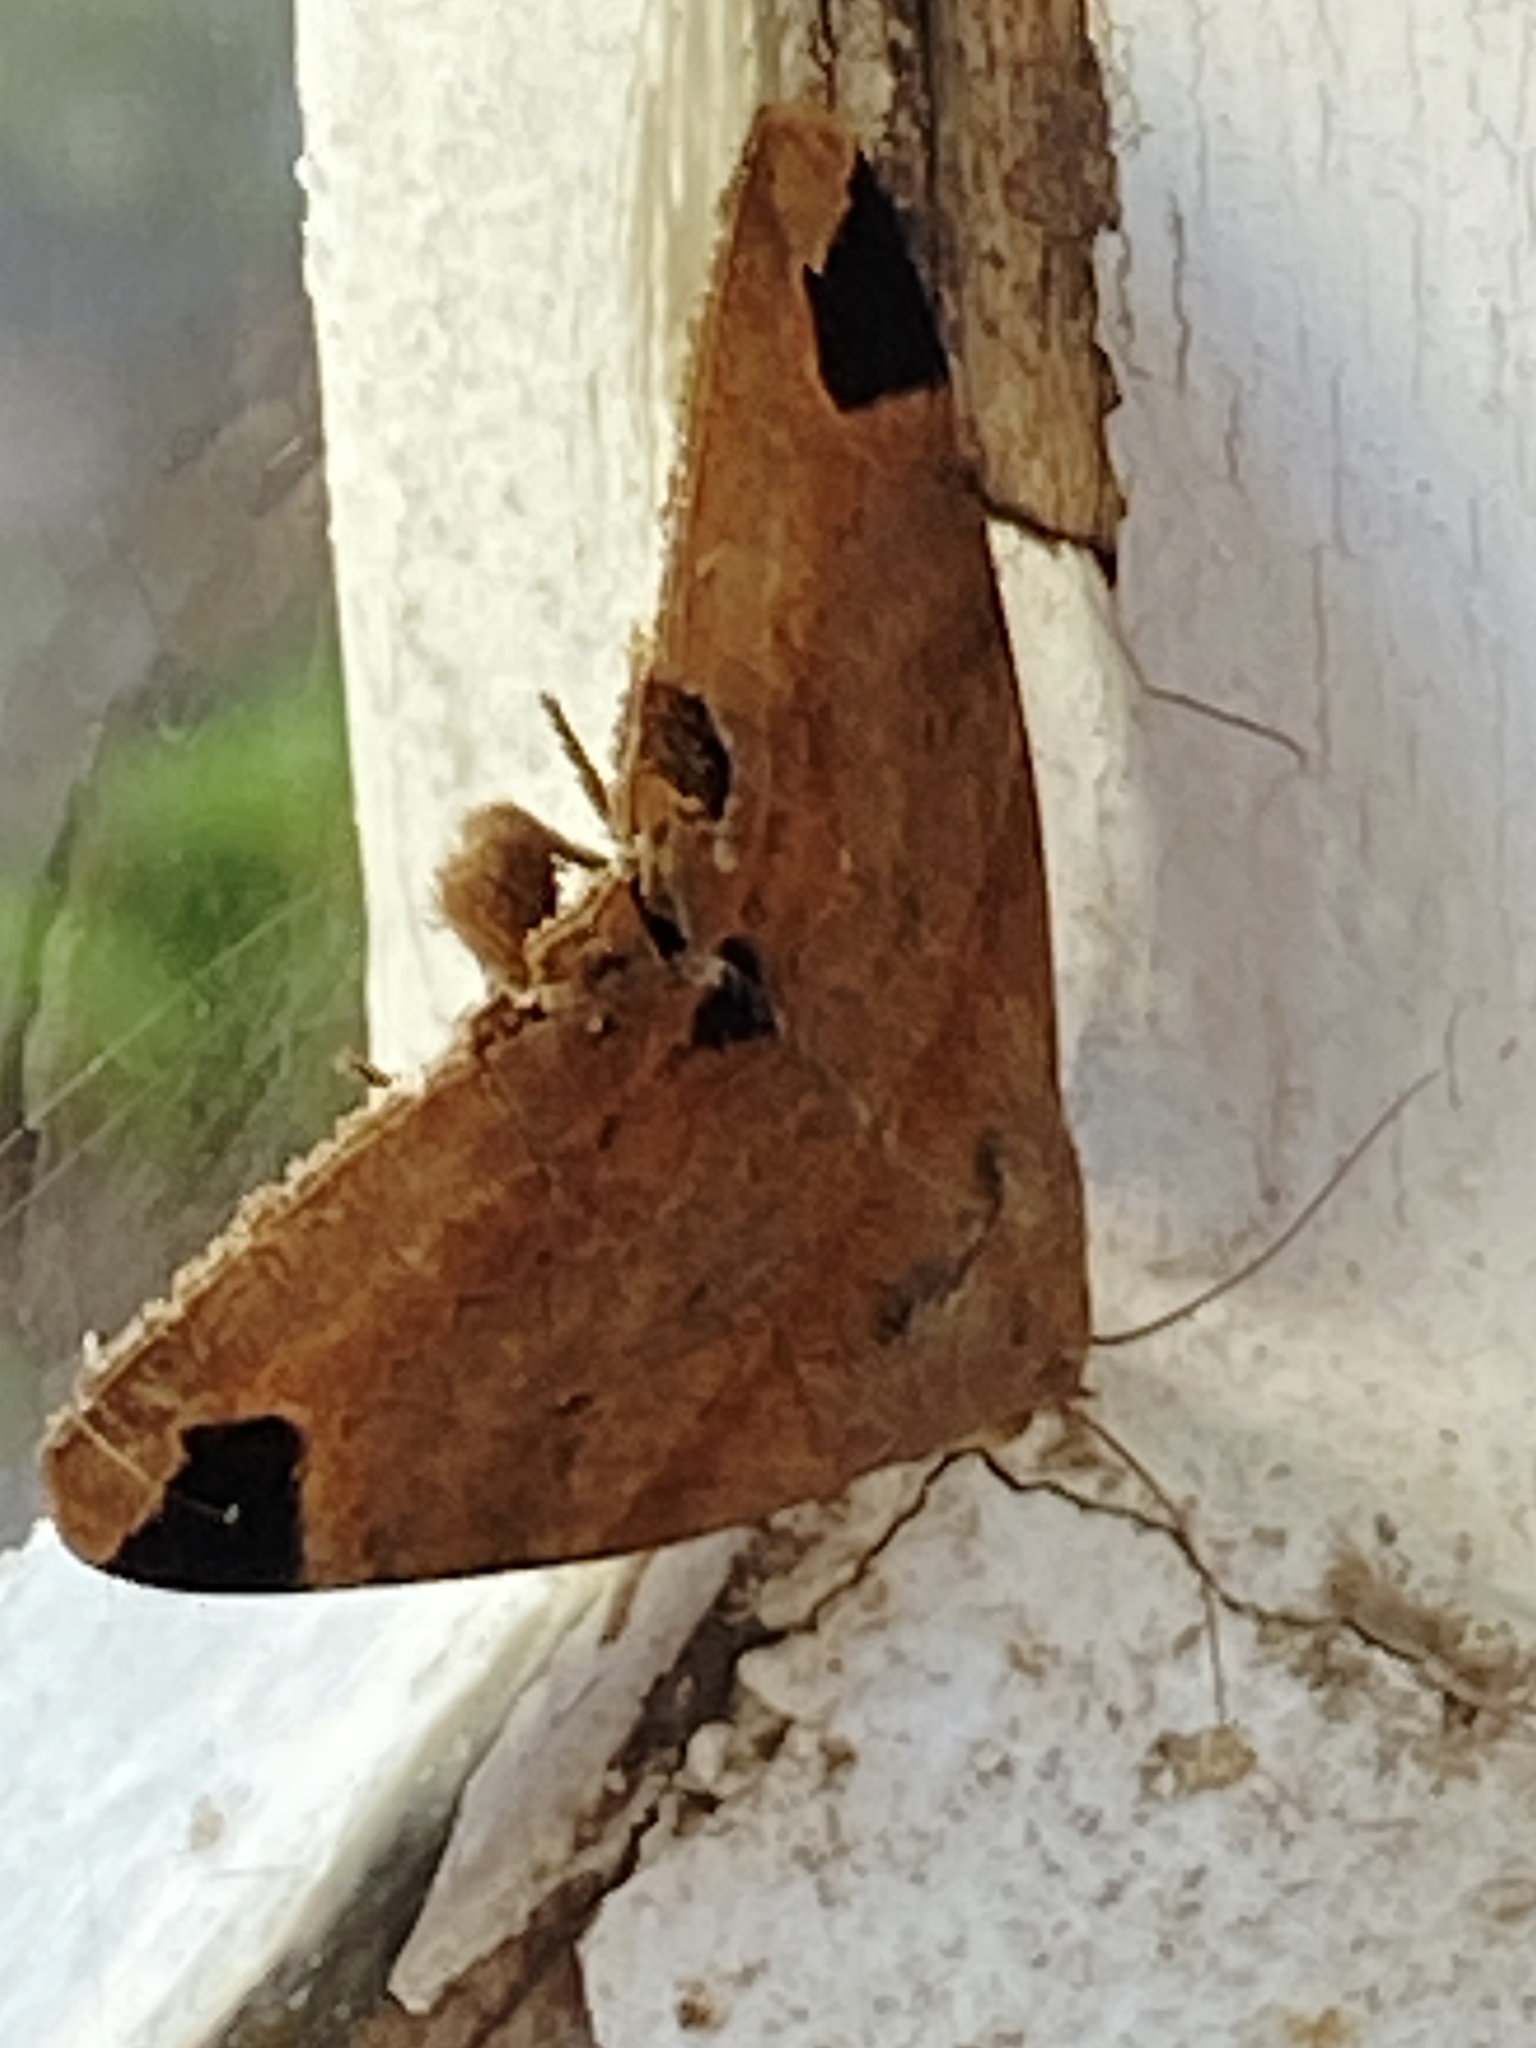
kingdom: Animalia
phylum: Arthropoda
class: Insecta
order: Lepidoptera
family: Erebidae
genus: Achaea
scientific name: Achaea lienardi
